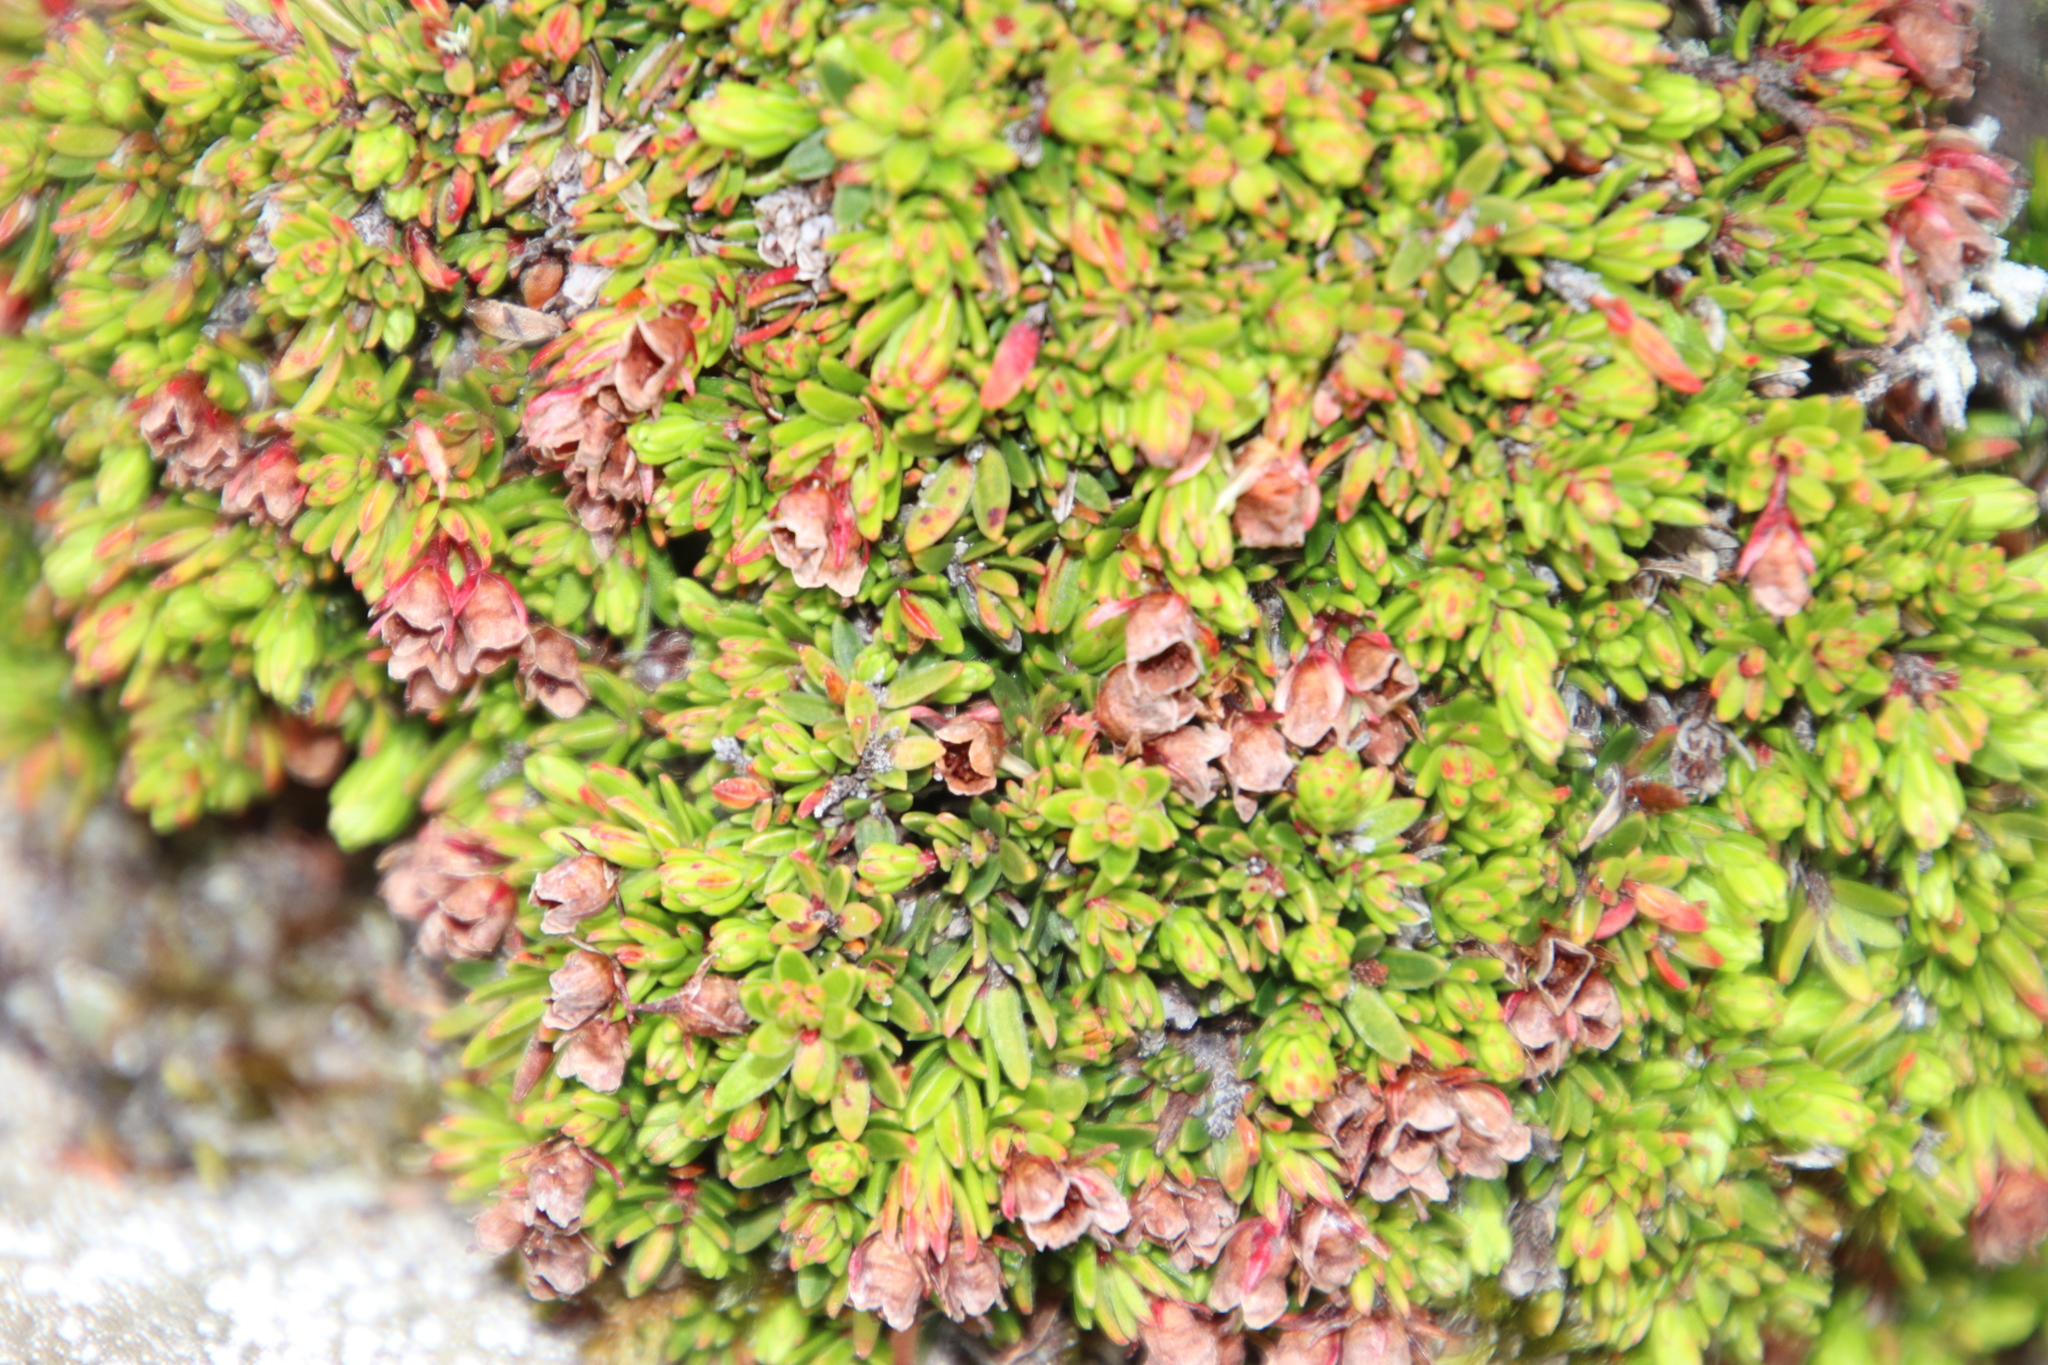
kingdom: Plantae
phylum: Tracheophyta
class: Magnoliopsida
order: Ericales
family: Ericaceae
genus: Erica
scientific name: Erica depressa
